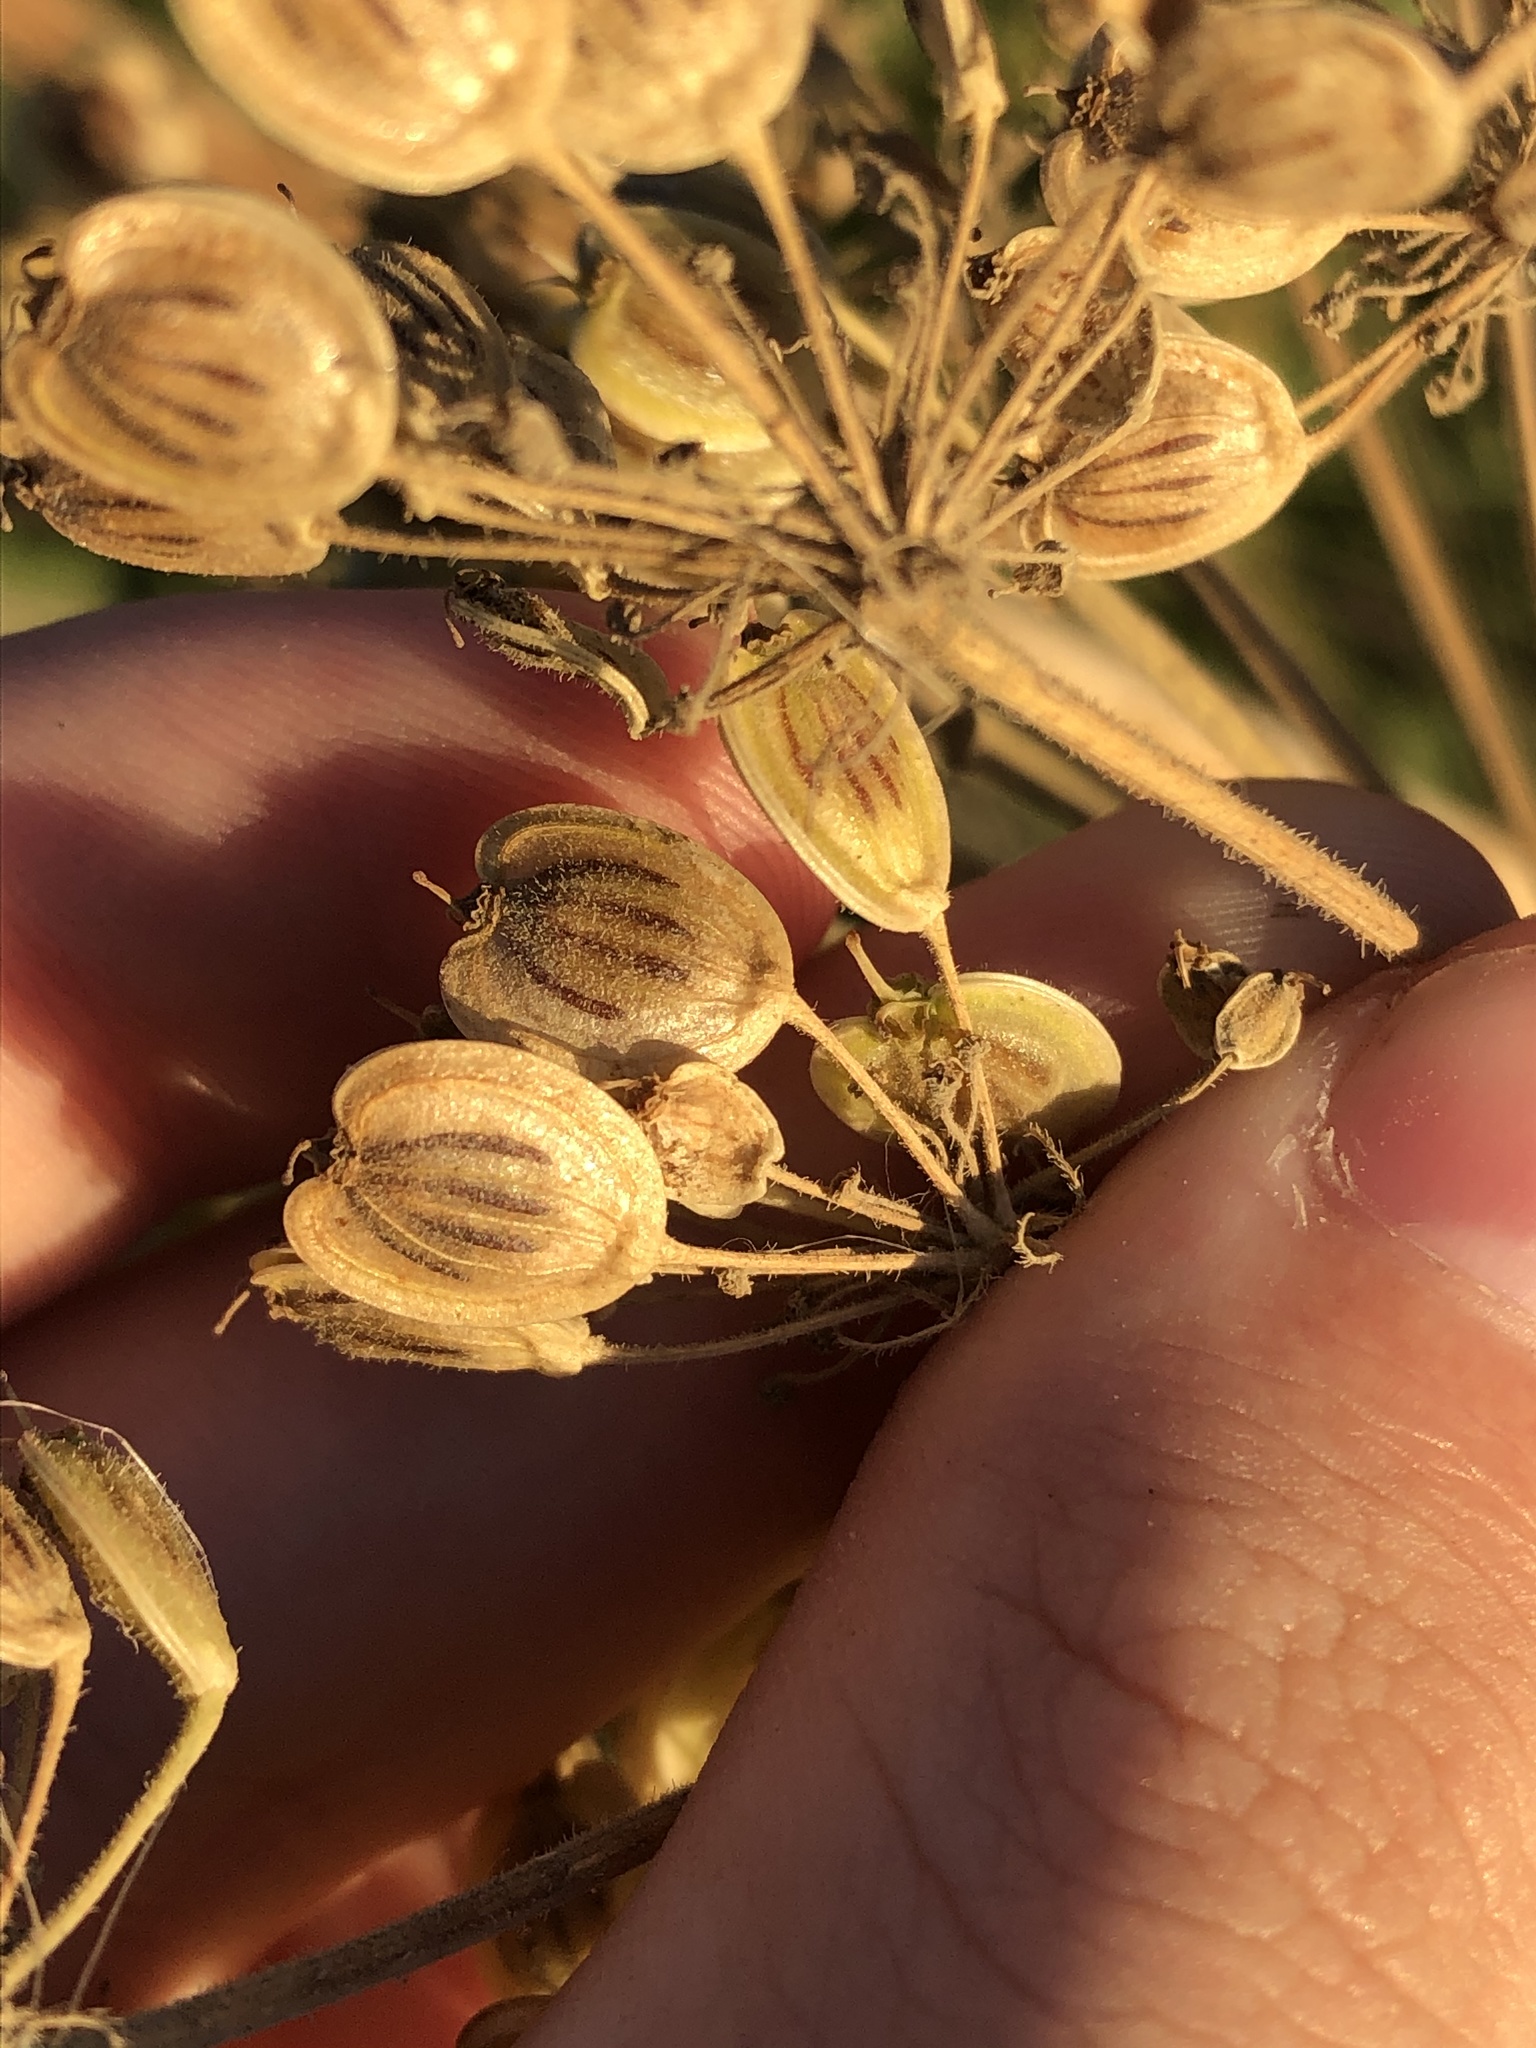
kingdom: Plantae
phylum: Tracheophyta
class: Magnoliopsida
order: Apiales
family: Apiaceae
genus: Heracleum
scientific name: Heracleum maximum
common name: American cow parsnip
